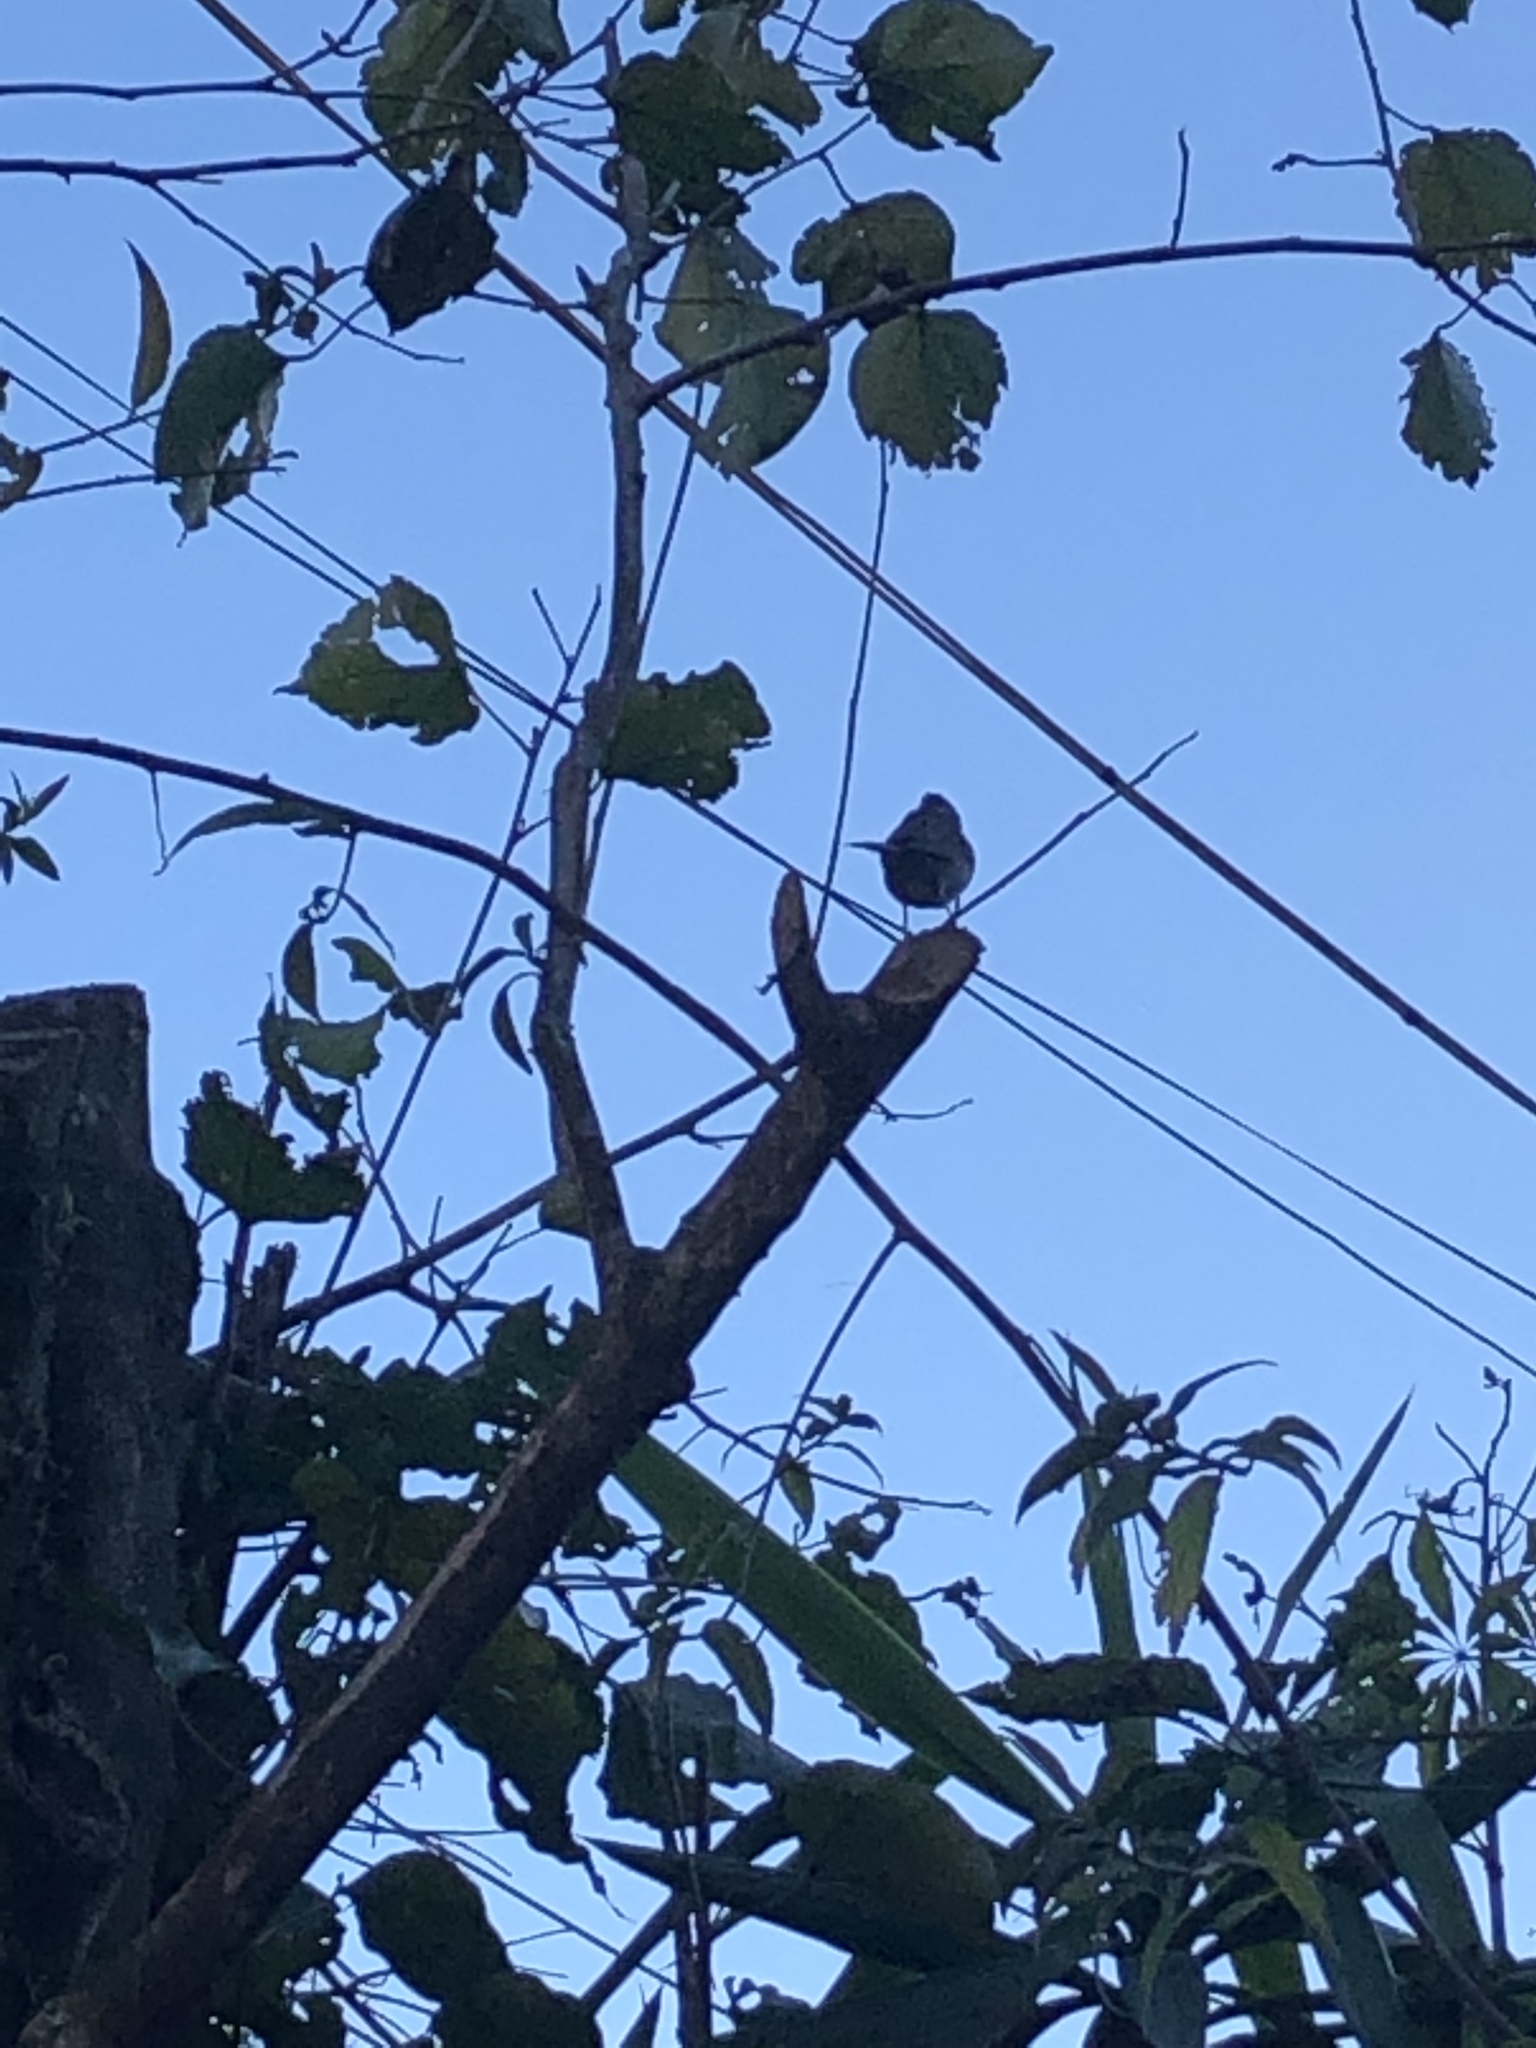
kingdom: Animalia
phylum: Chordata
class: Aves
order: Passeriformes
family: Passerellidae
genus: Zonotrichia
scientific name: Zonotrichia capensis
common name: Rufous-collared sparrow
